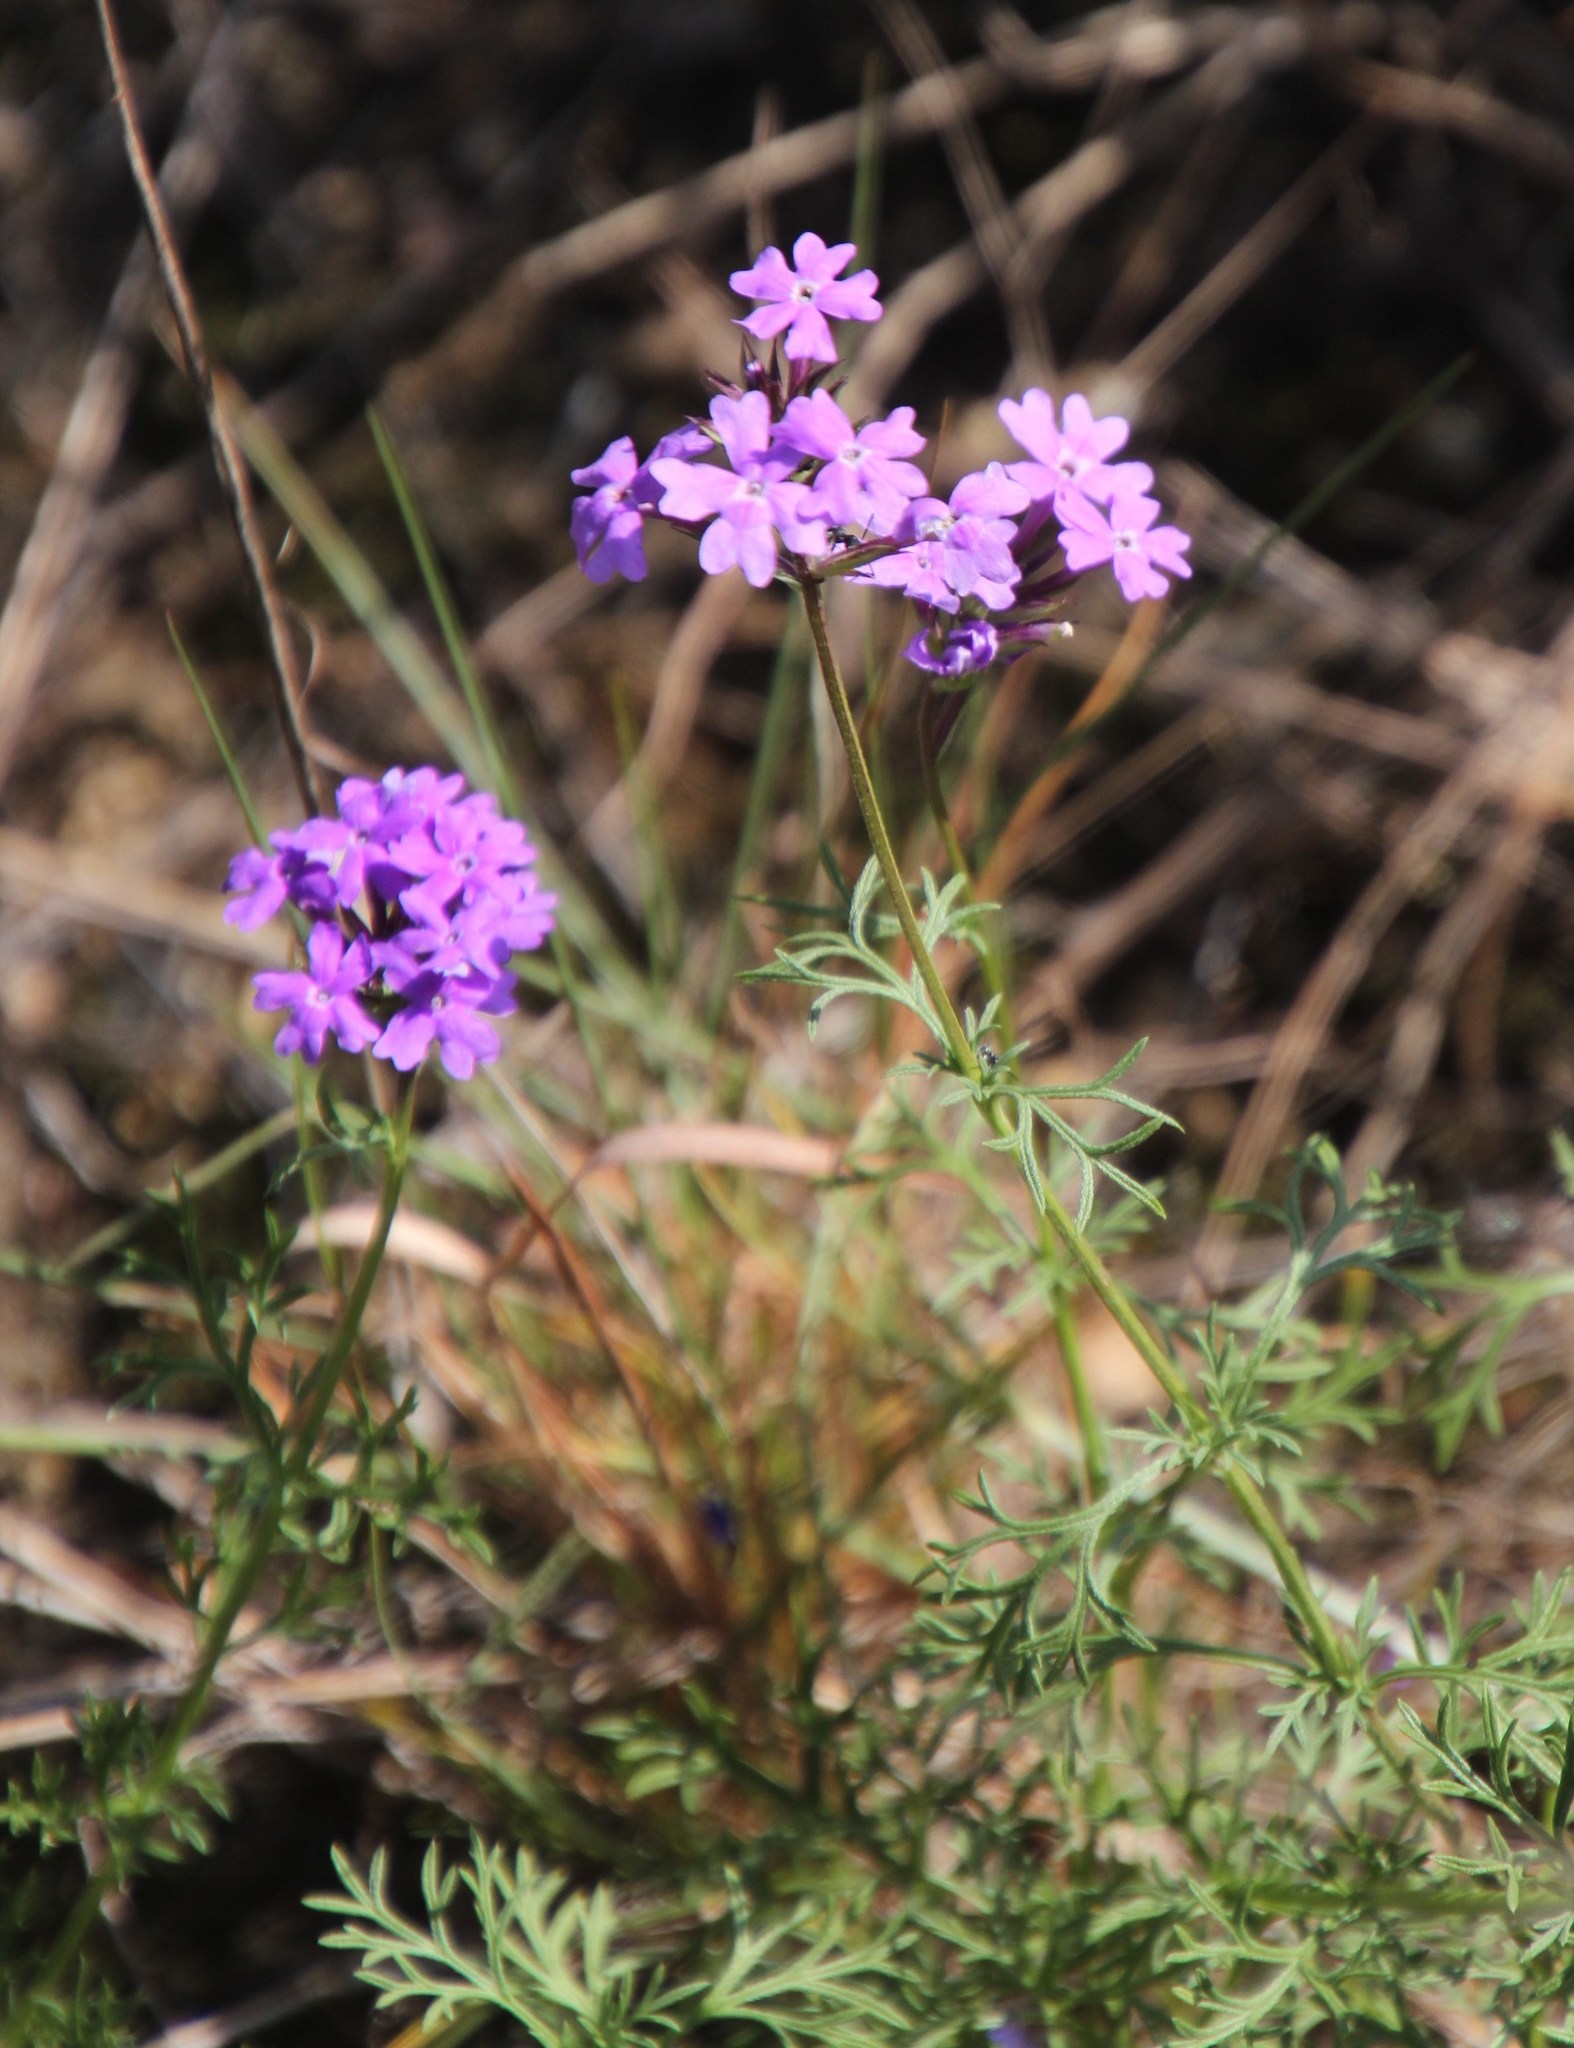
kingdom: Plantae
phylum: Tracheophyta
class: Magnoliopsida
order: Lamiales
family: Verbenaceae
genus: Verbena
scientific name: Verbena aristigera
